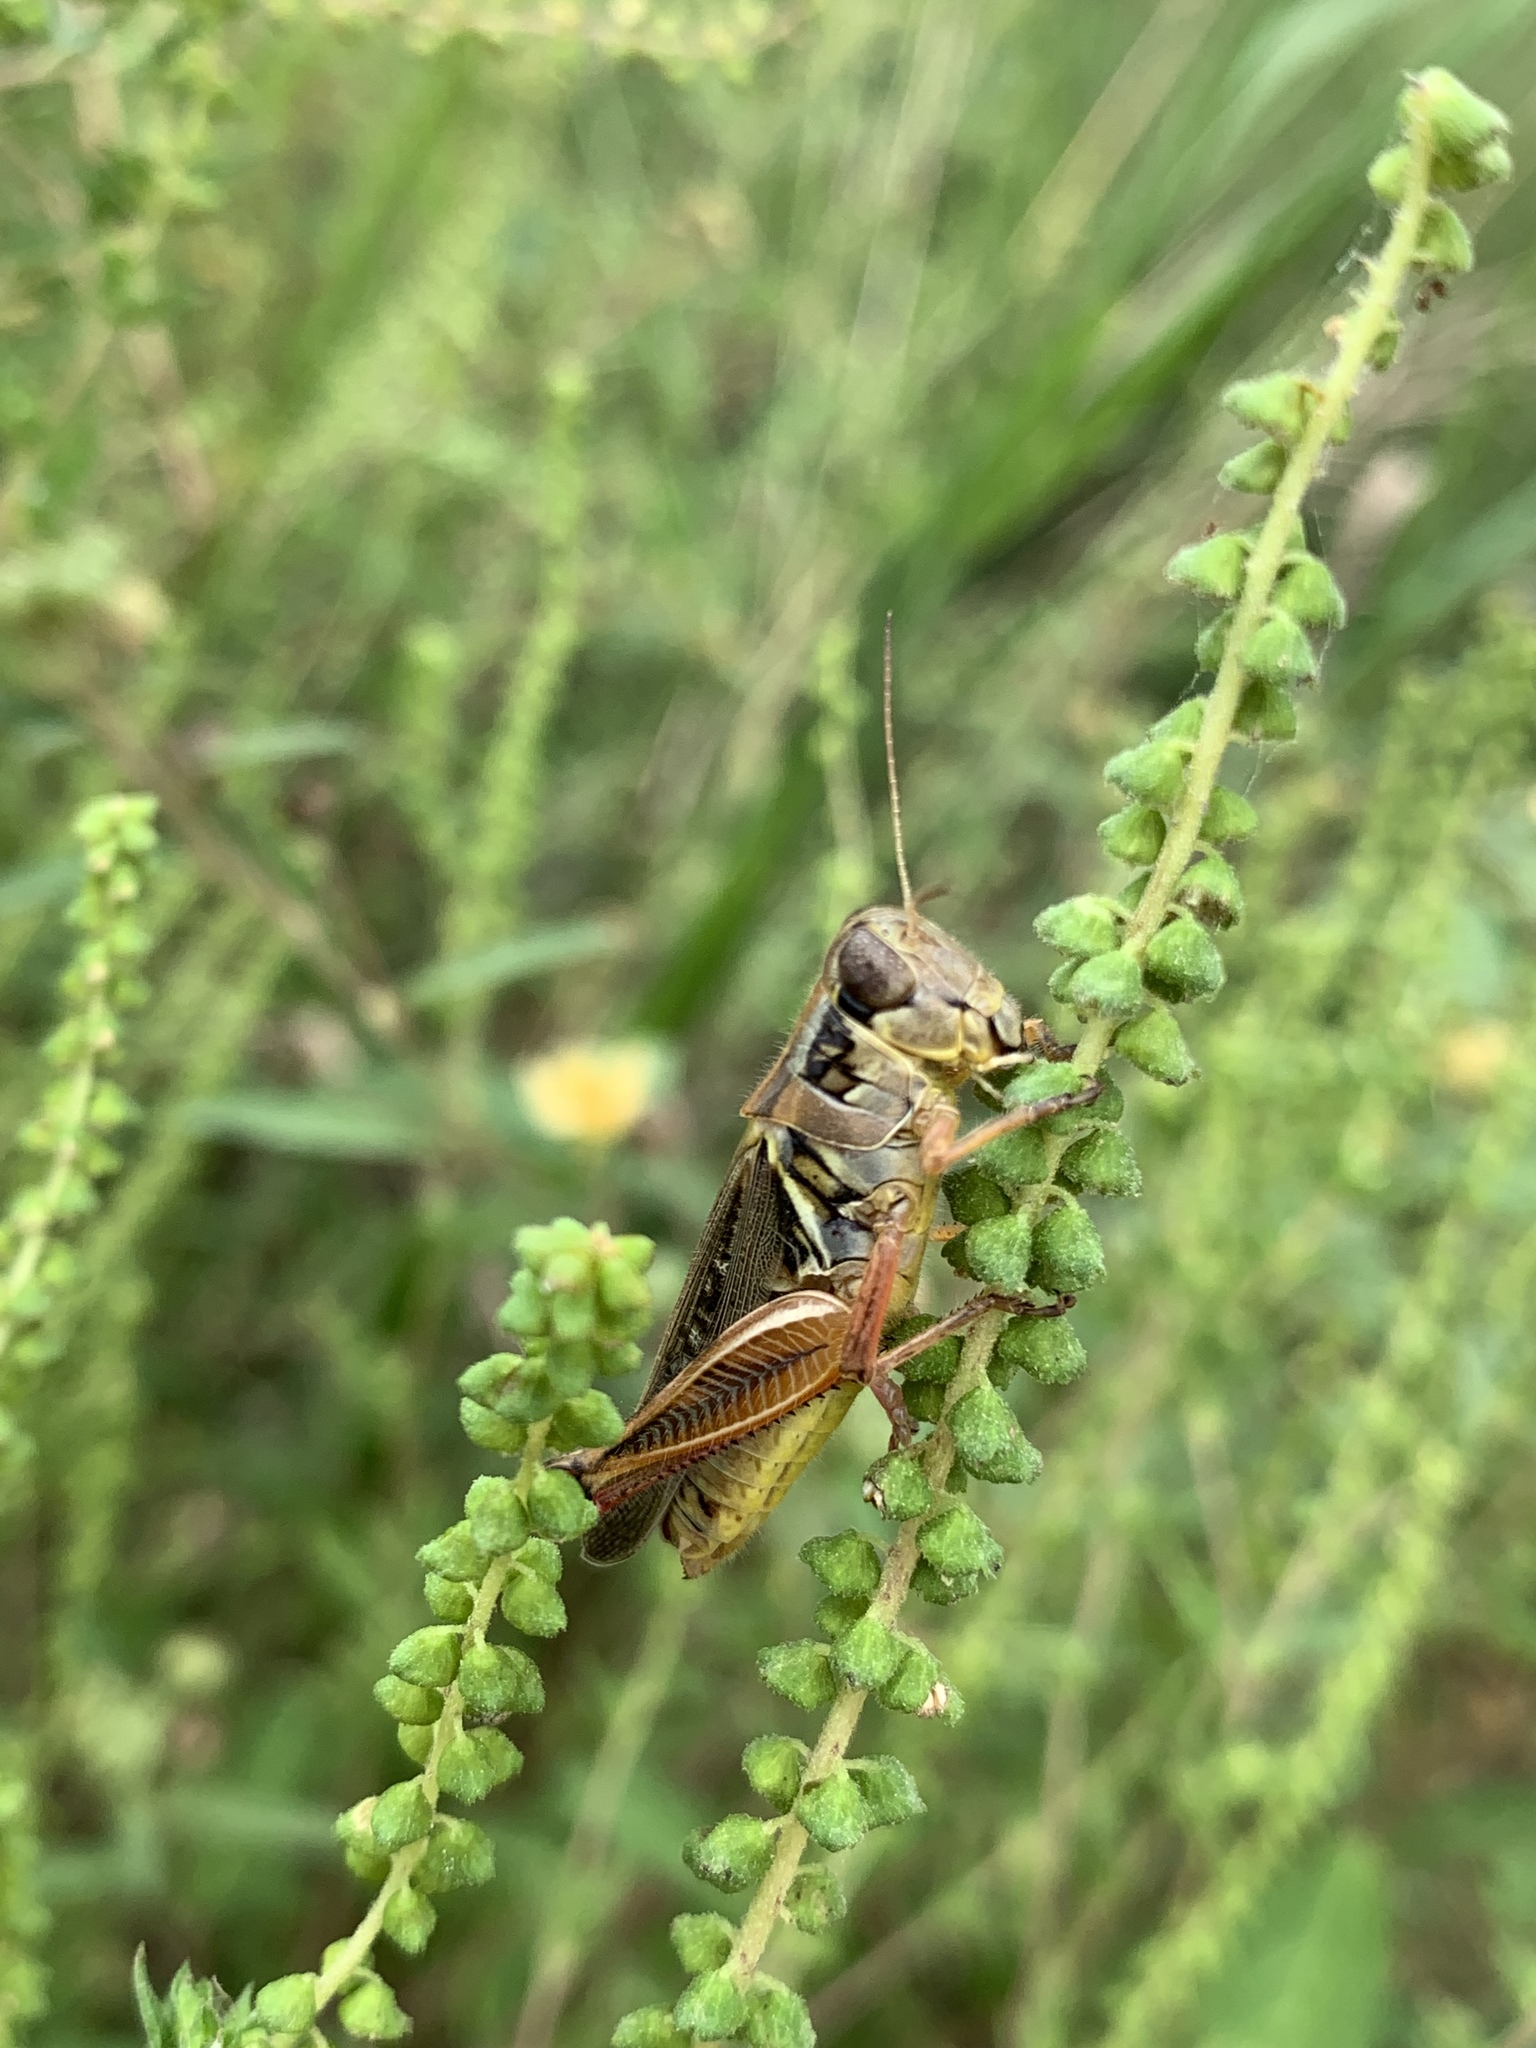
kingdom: Animalia
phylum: Arthropoda
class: Insecta
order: Orthoptera
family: Acrididae
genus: Melanoplus
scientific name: Melanoplus femurrubrum
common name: Red-legged grasshopper
